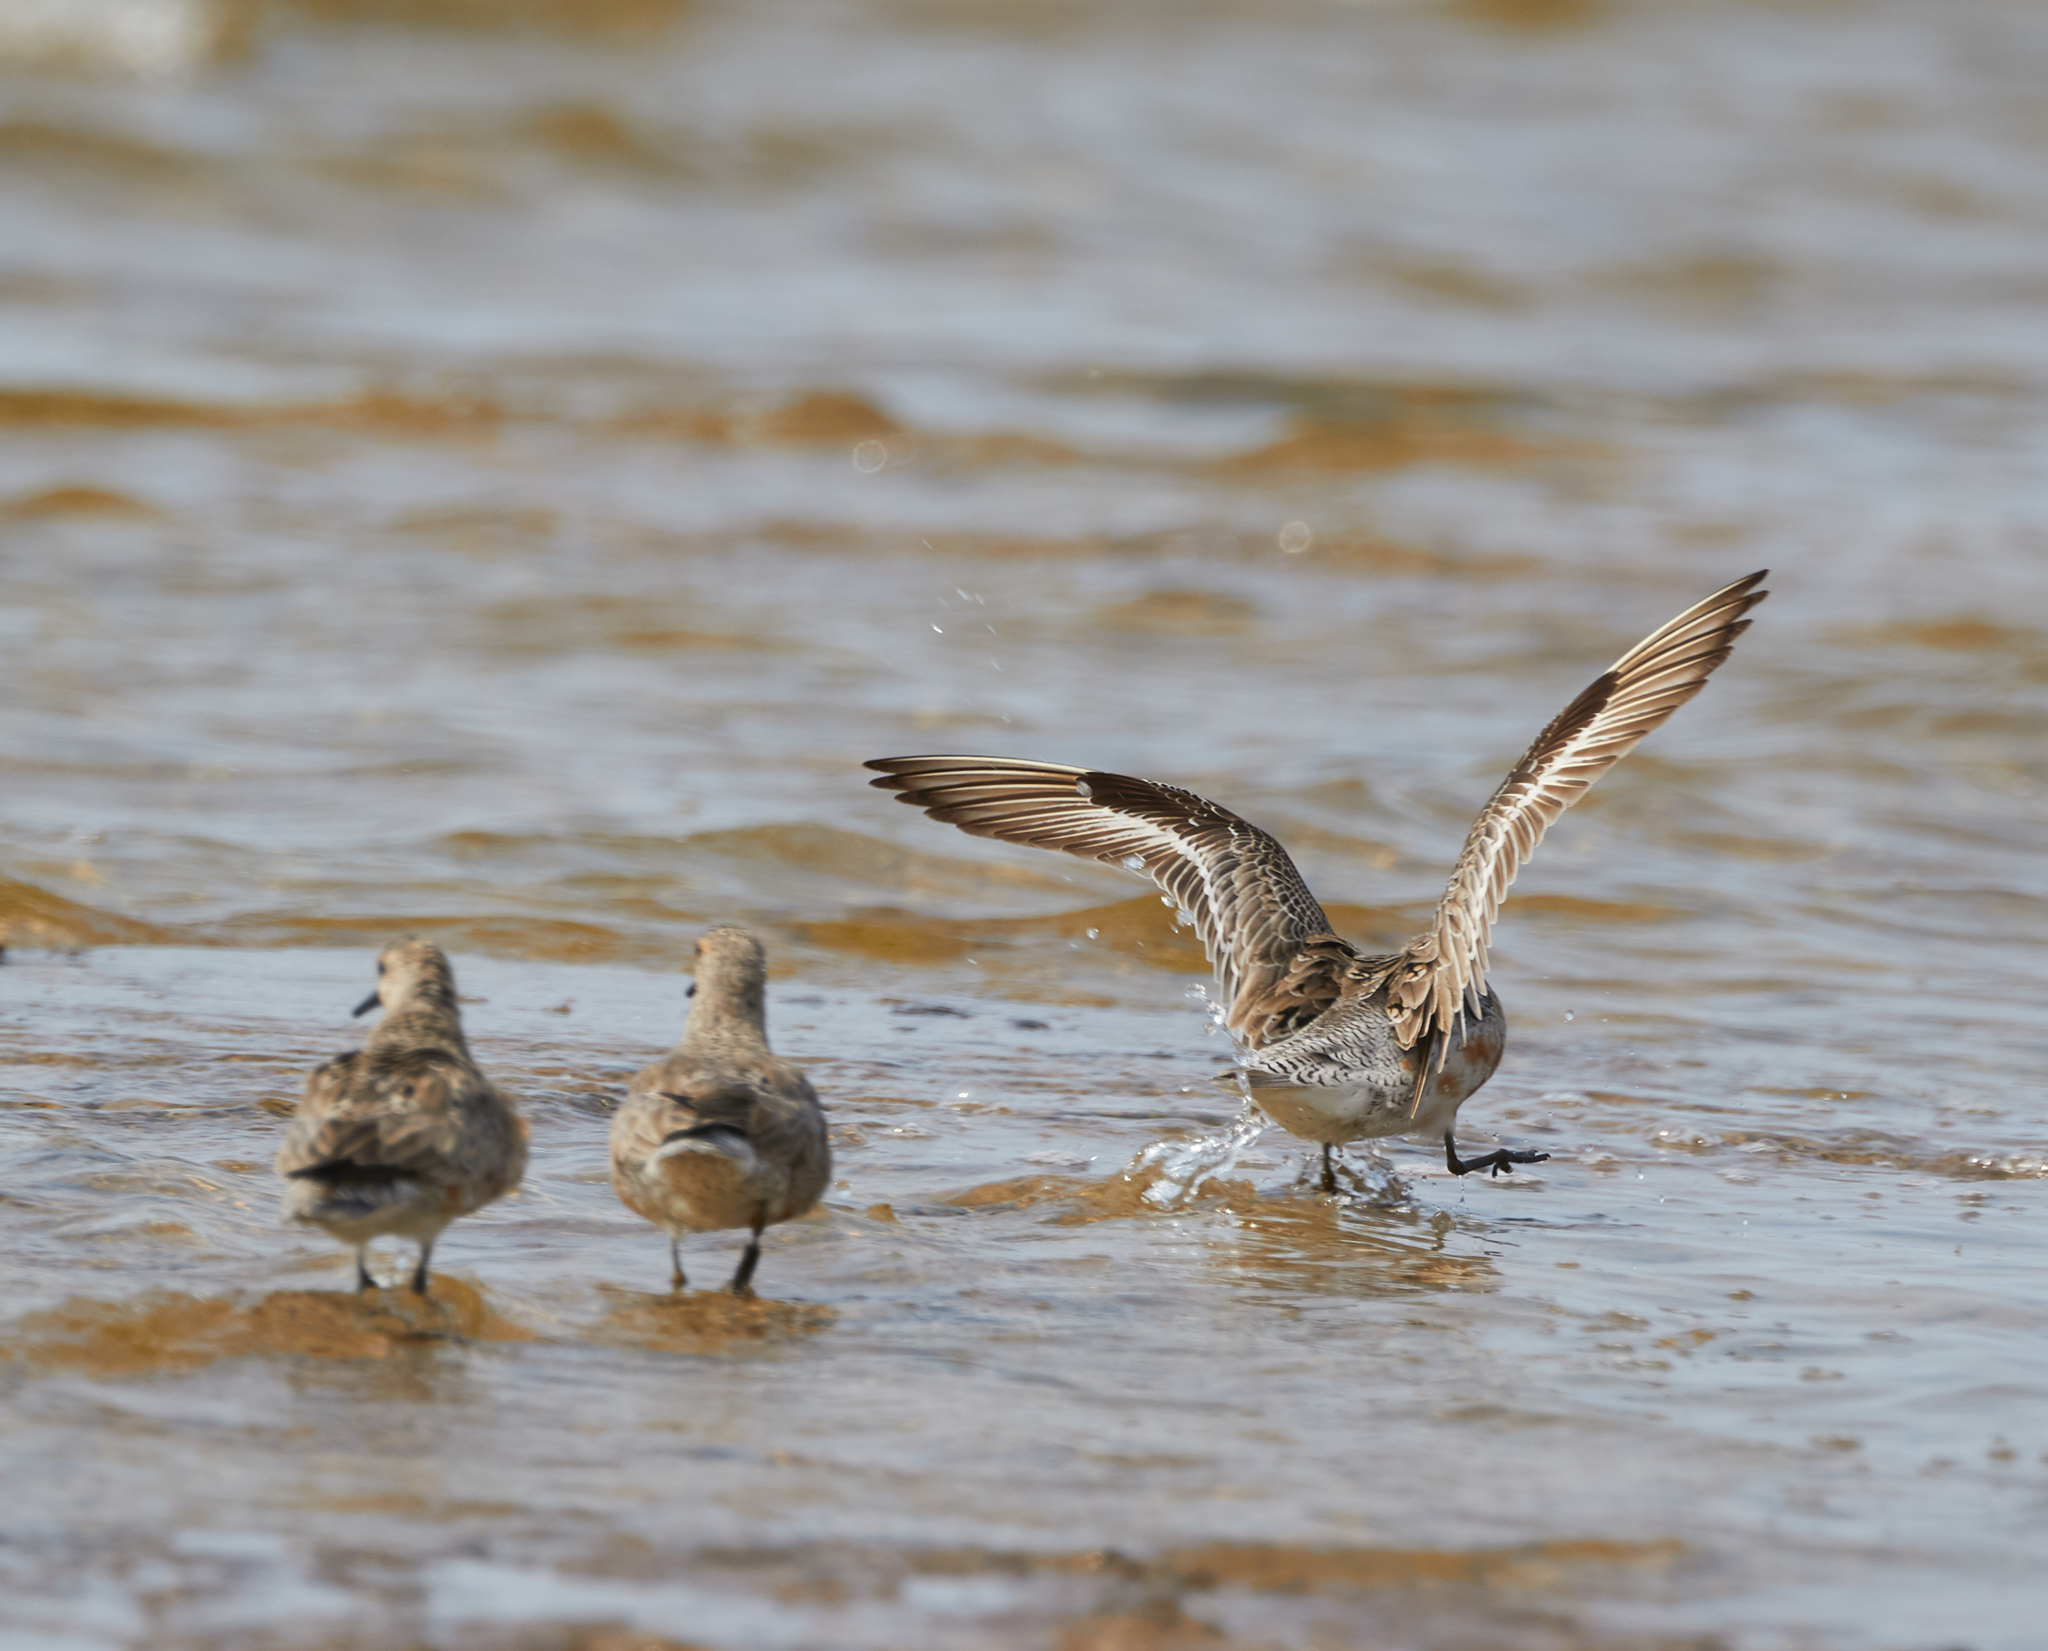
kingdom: Animalia
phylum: Chordata
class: Aves
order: Charadriiformes
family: Scolopacidae
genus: Calidris
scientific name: Calidris canutus
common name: Red knot
